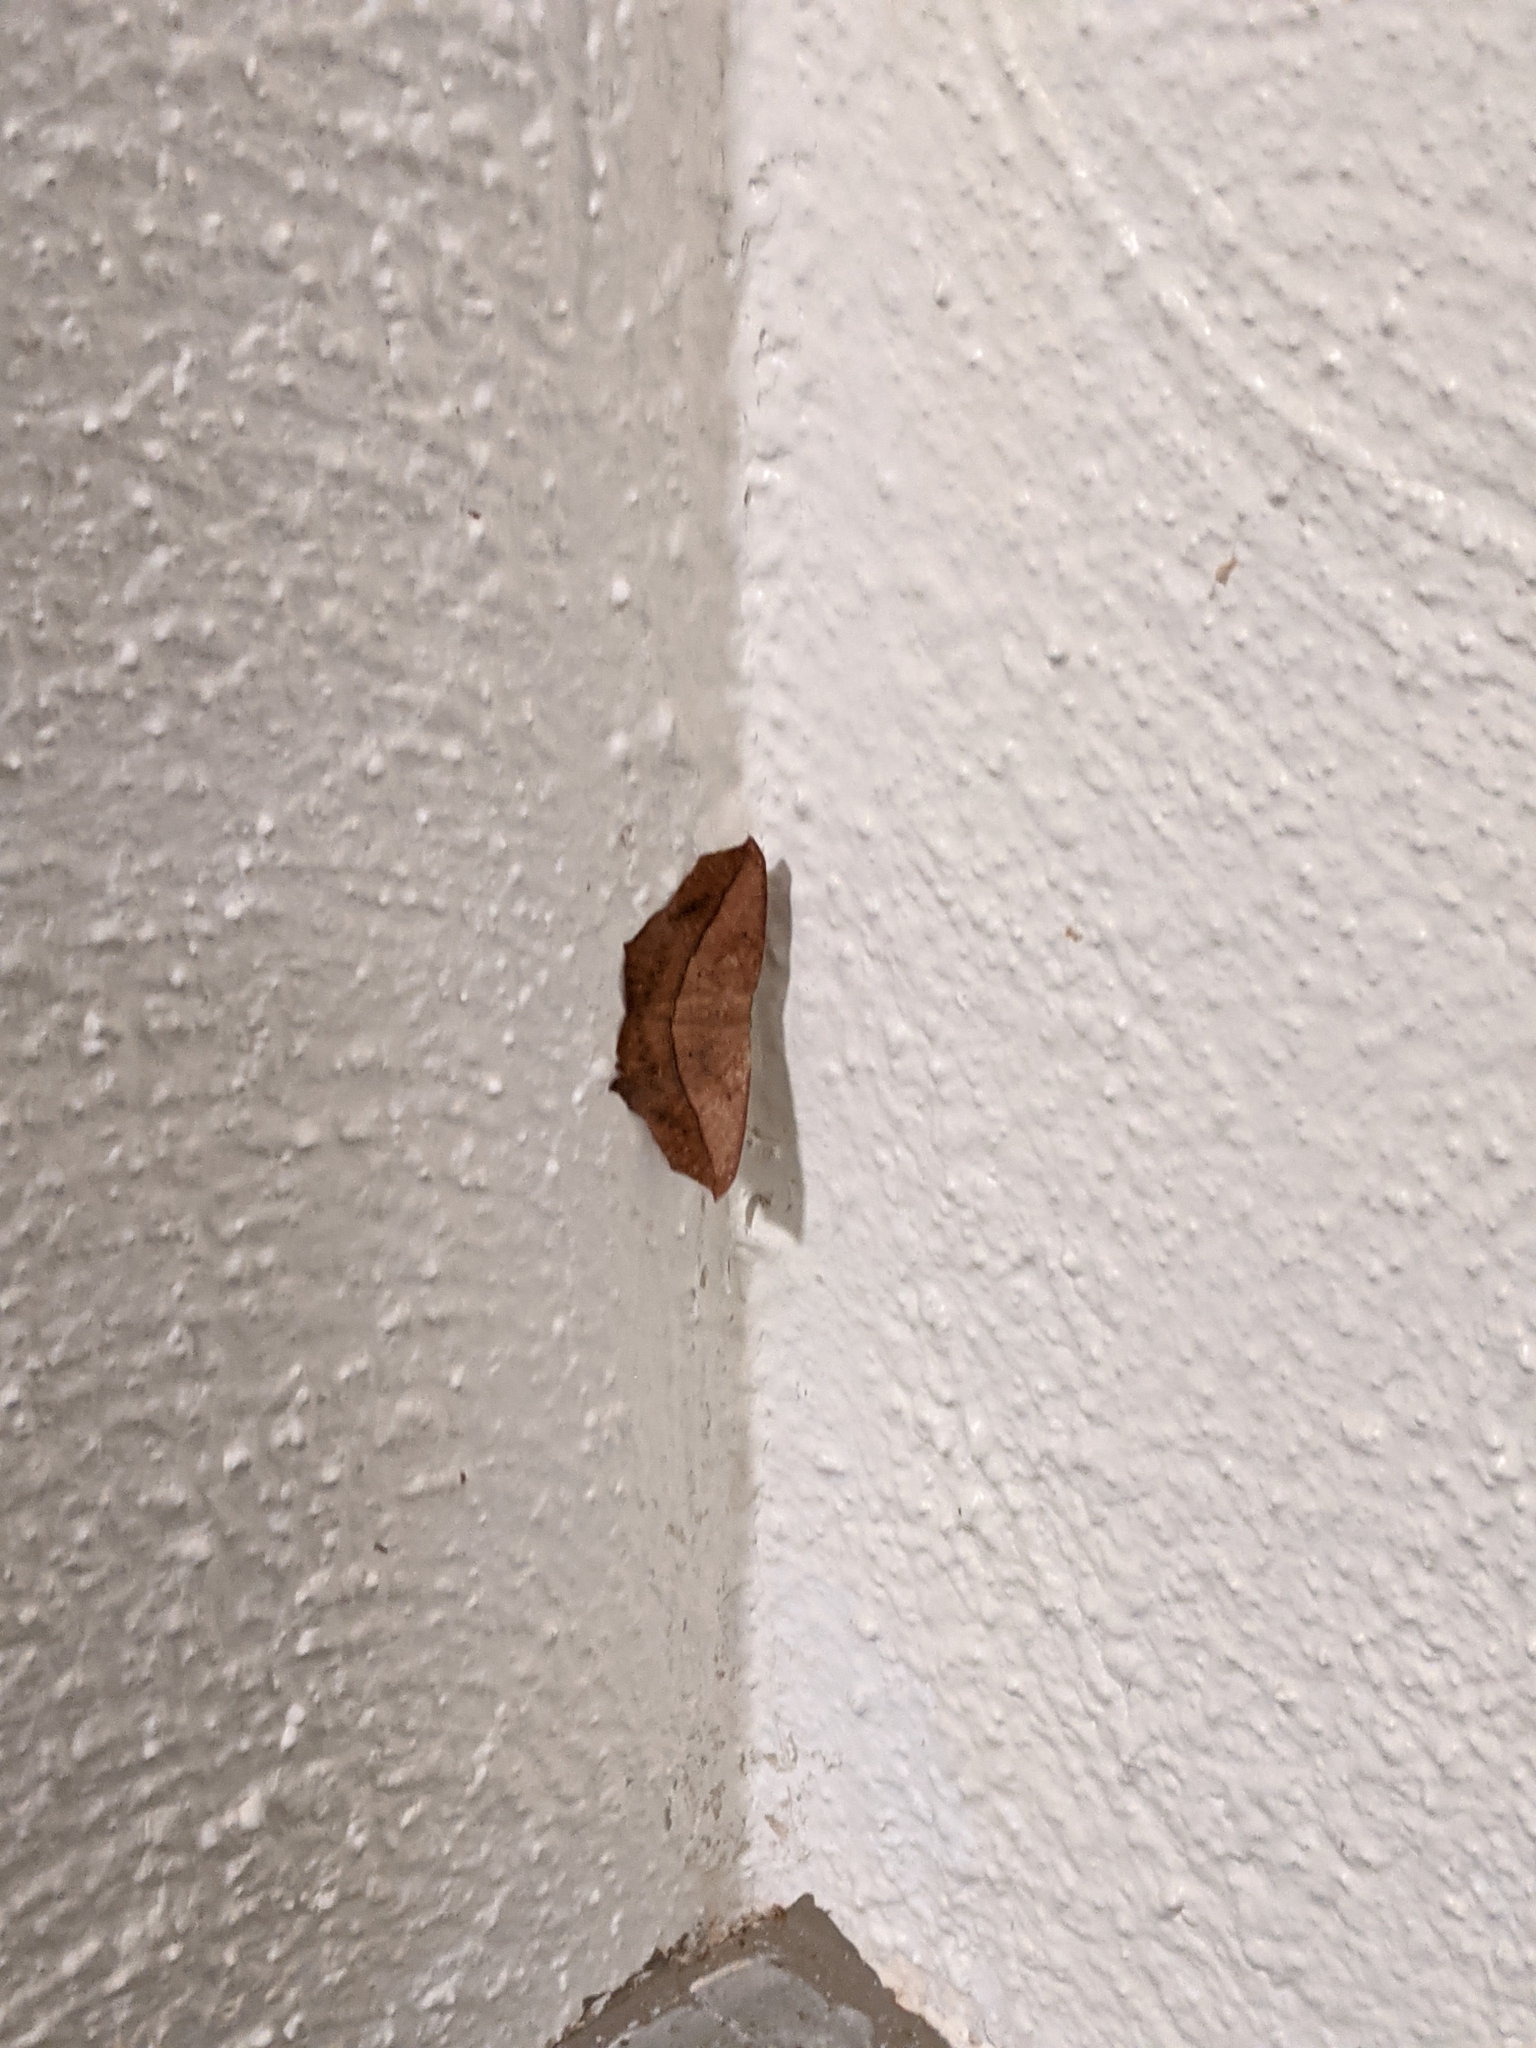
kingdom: Animalia
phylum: Arthropoda
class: Insecta
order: Lepidoptera
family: Geometridae
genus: Prochoerodes
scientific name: Prochoerodes lineola
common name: Large maple spanworm
